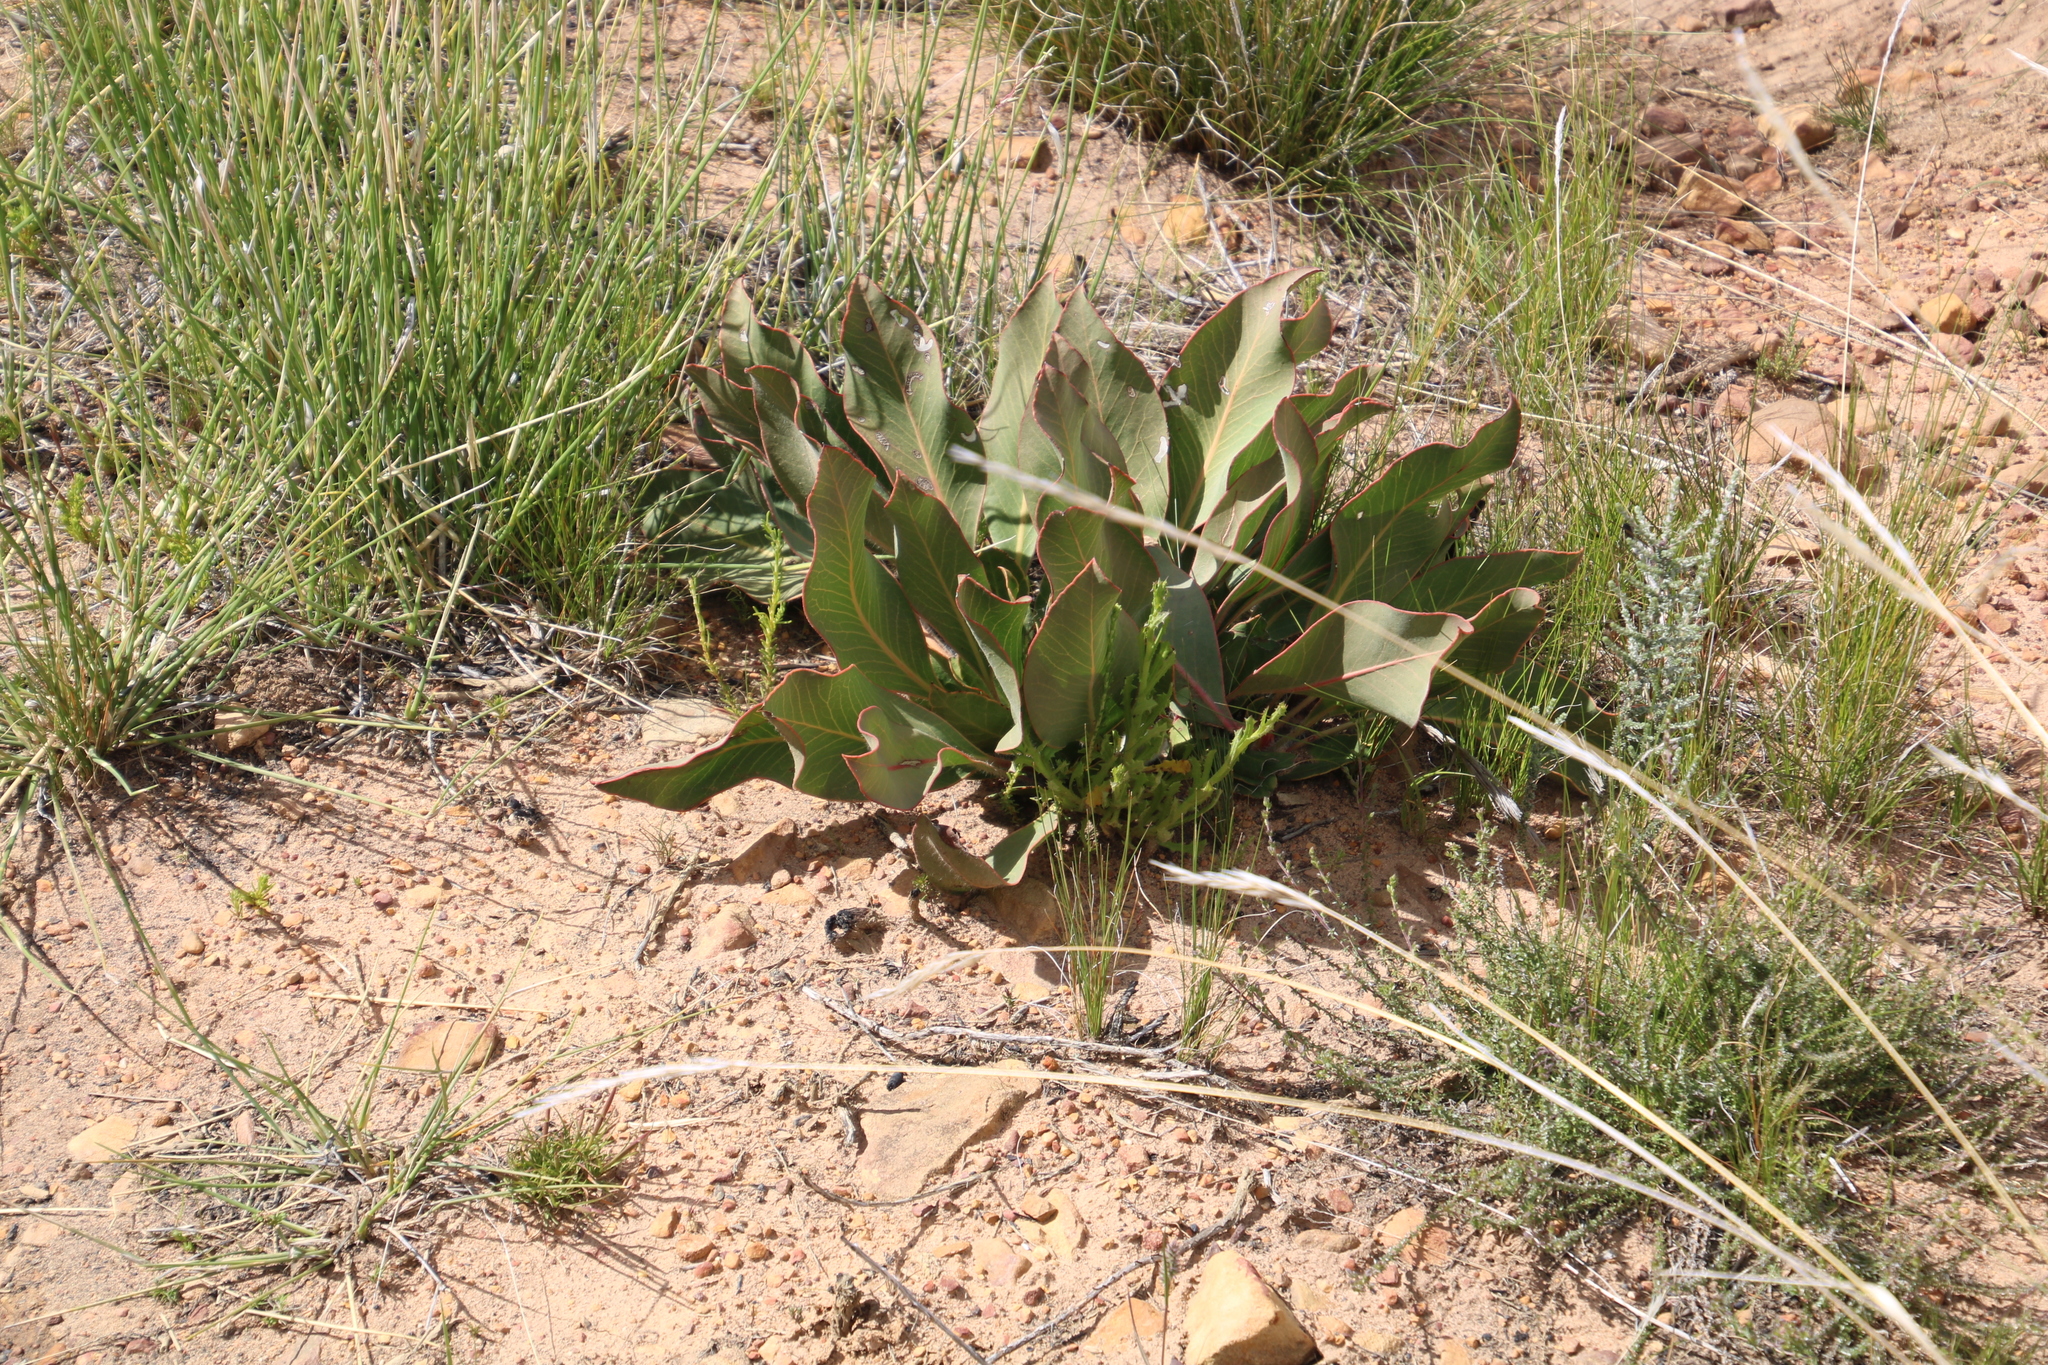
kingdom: Plantae
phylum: Tracheophyta
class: Magnoliopsida
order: Proteales
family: Proteaceae
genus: Protea
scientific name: Protea scolopendriifolia
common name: Harts-tongue-fern sugarbush
